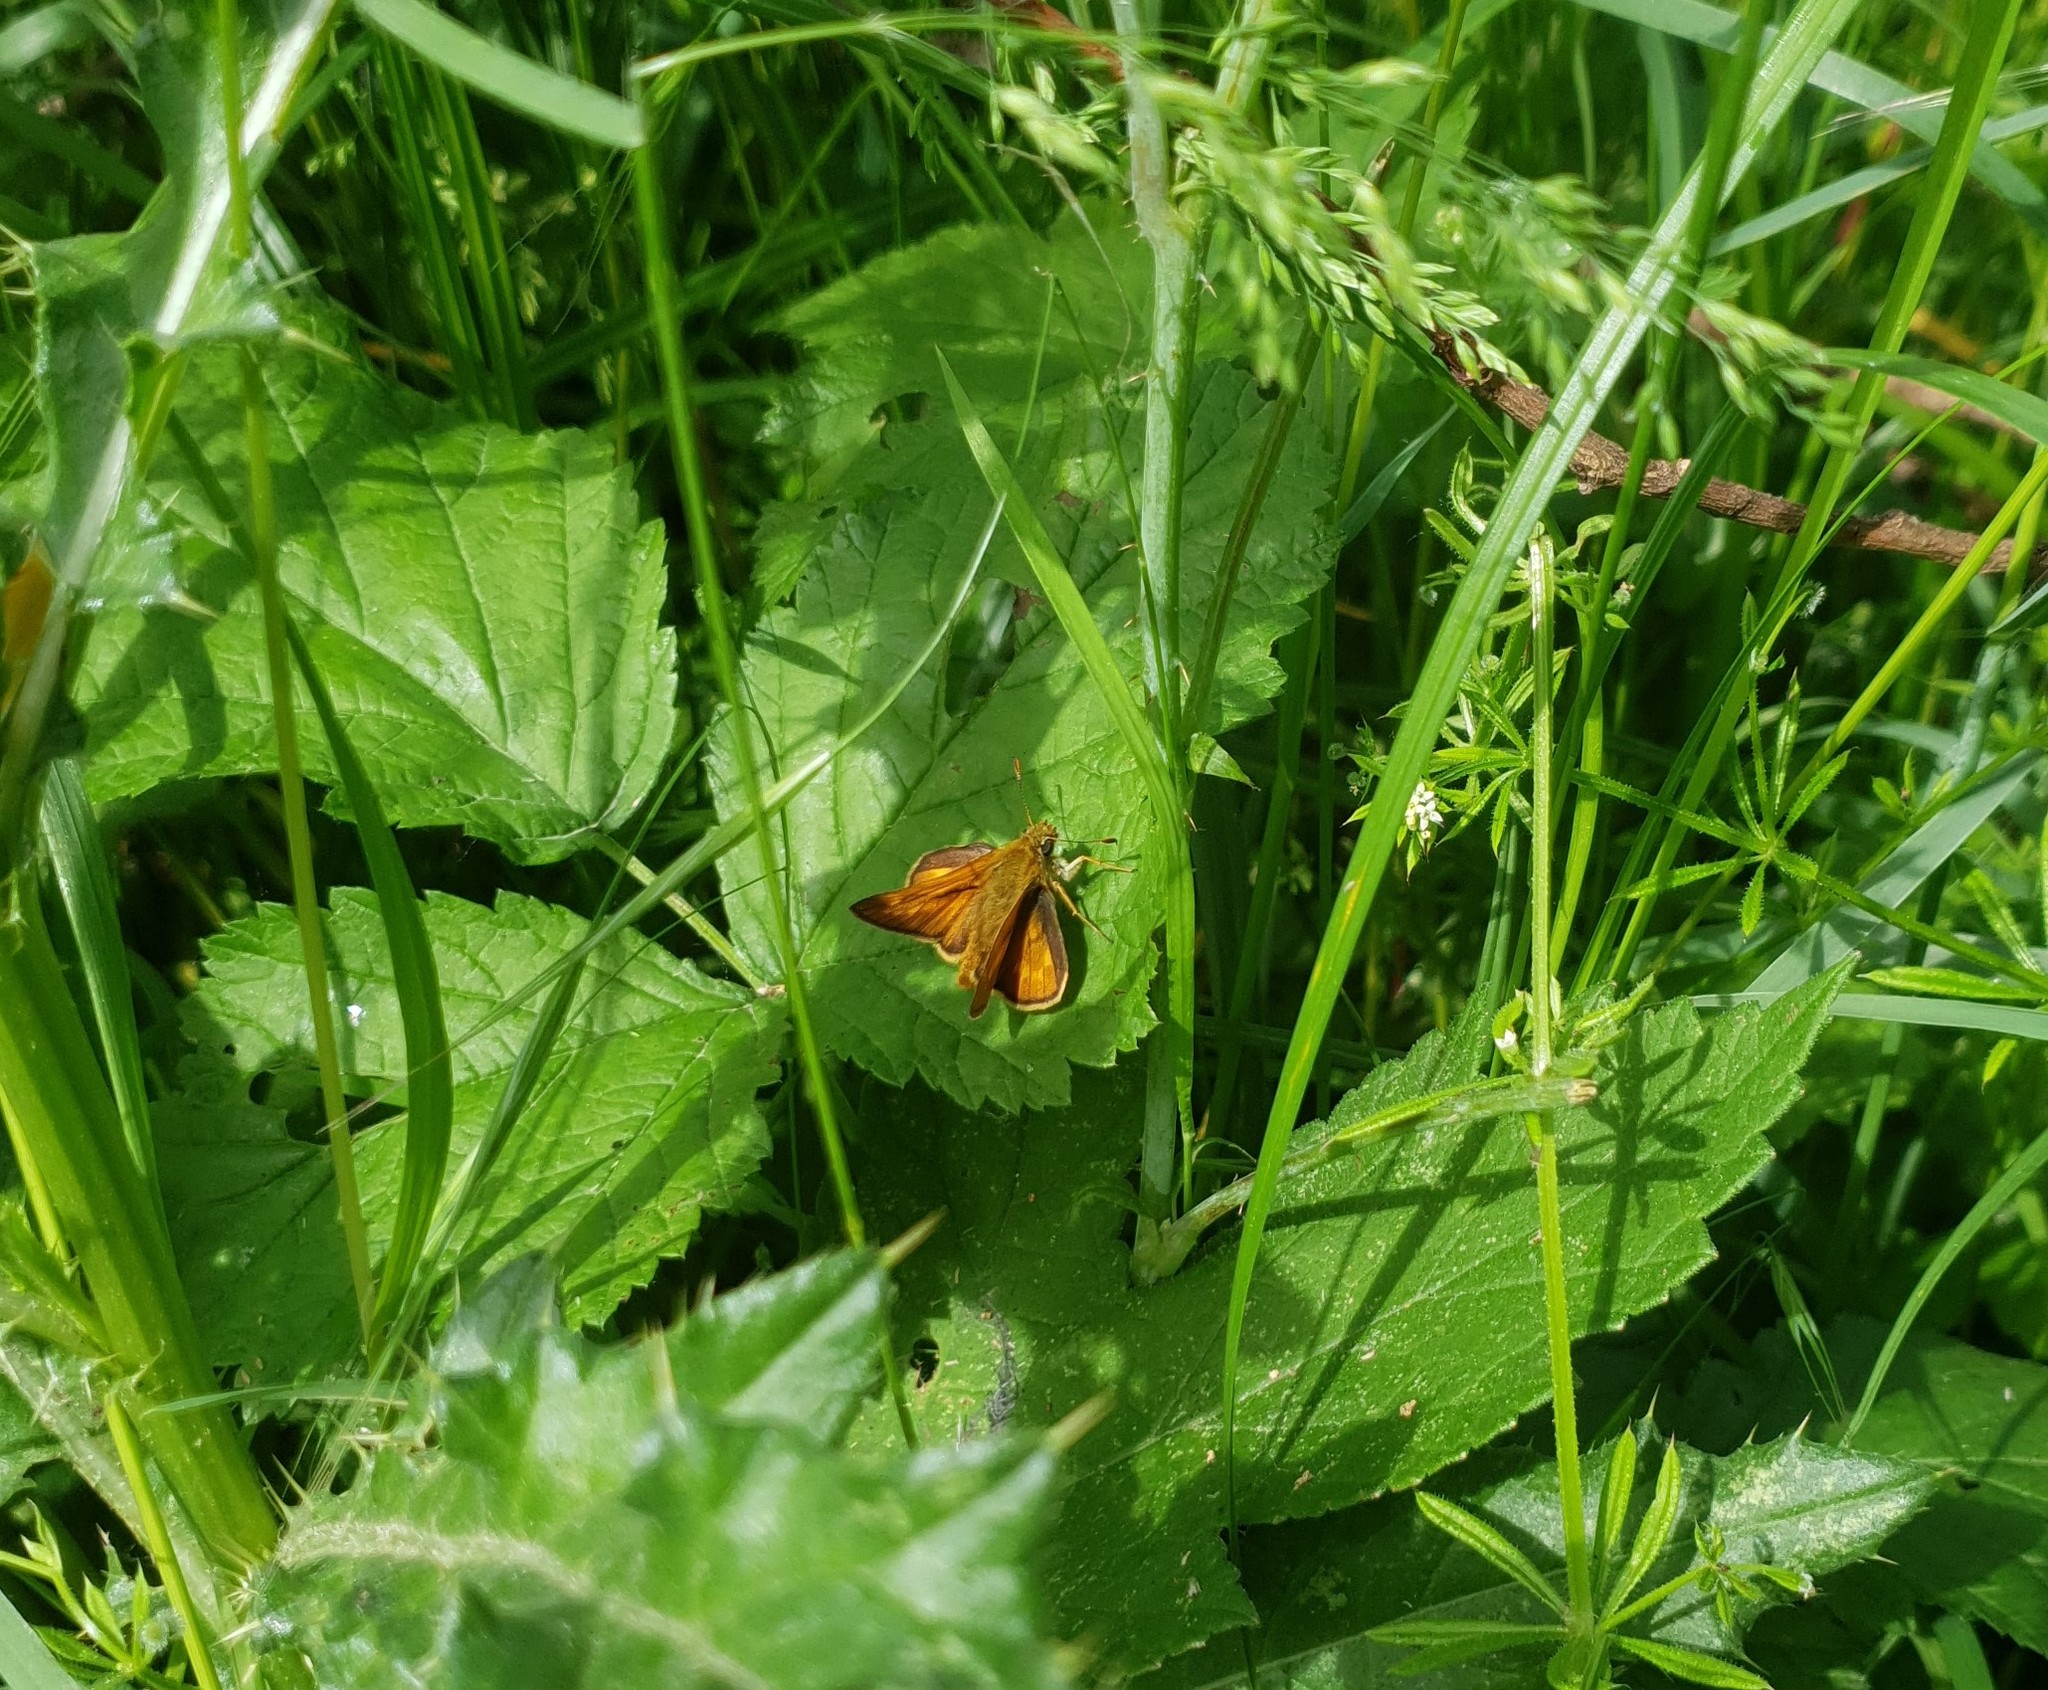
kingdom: Animalia
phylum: Arthropoda
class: Insecta
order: Lepidoptera
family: Hesperiidae
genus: Ochlodes
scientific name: Ochlodes venata
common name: Large skipper
